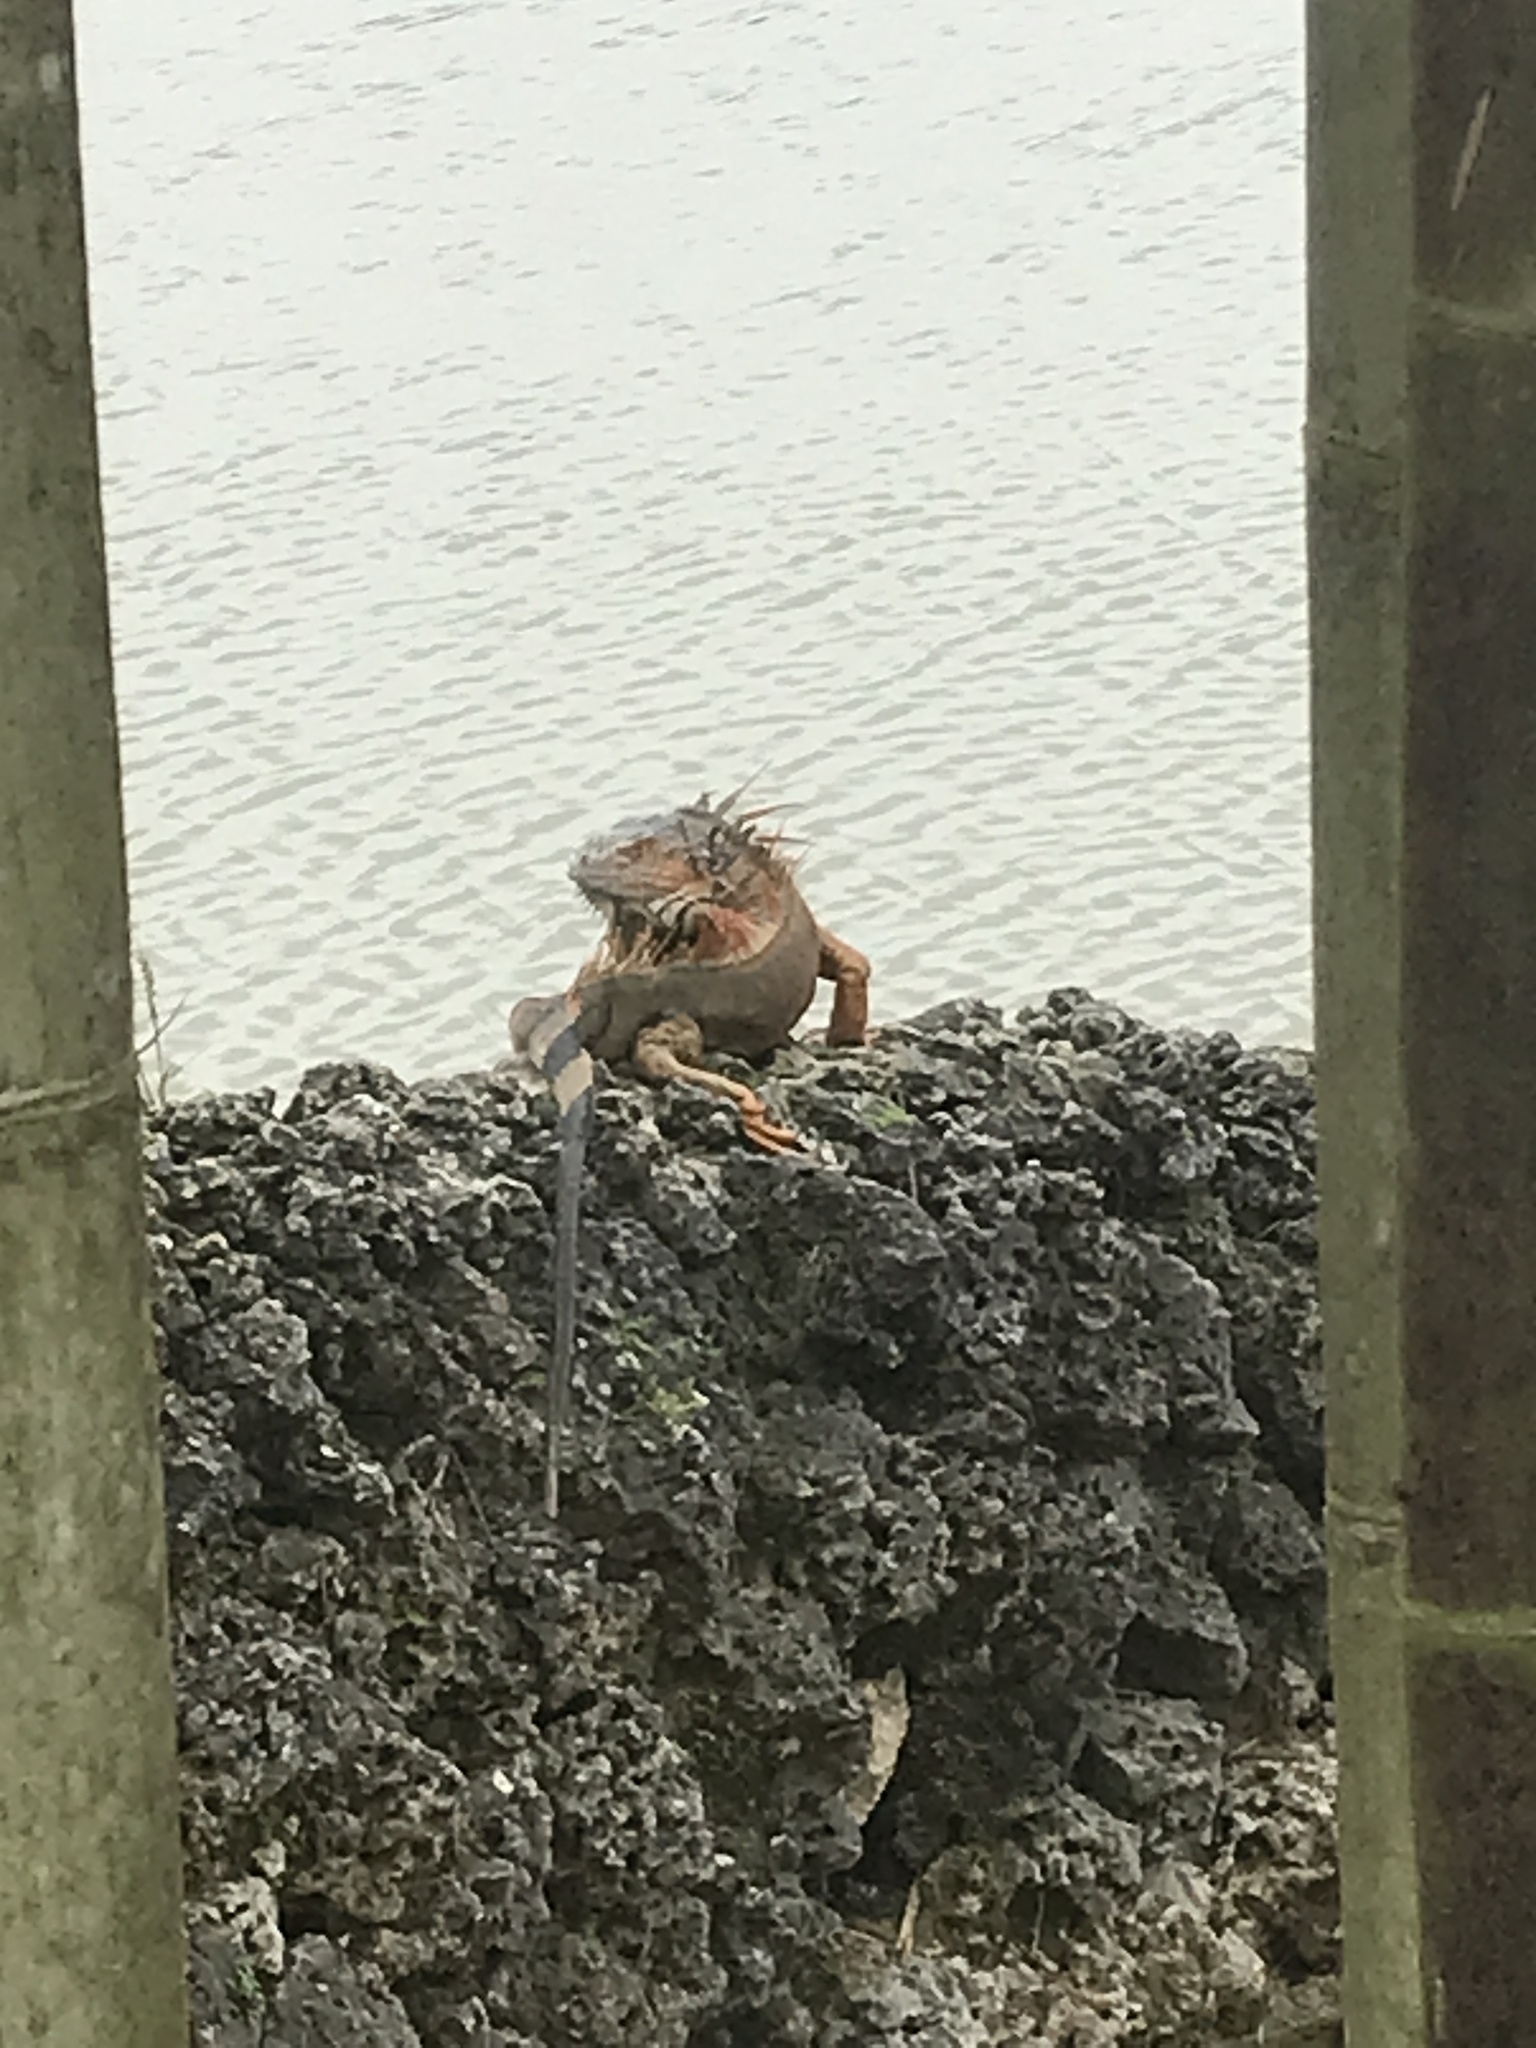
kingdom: Animalia
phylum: Chordata
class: Squamata
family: Iguanidae
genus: Iguana
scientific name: Iguana iguana
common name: Green iguana
